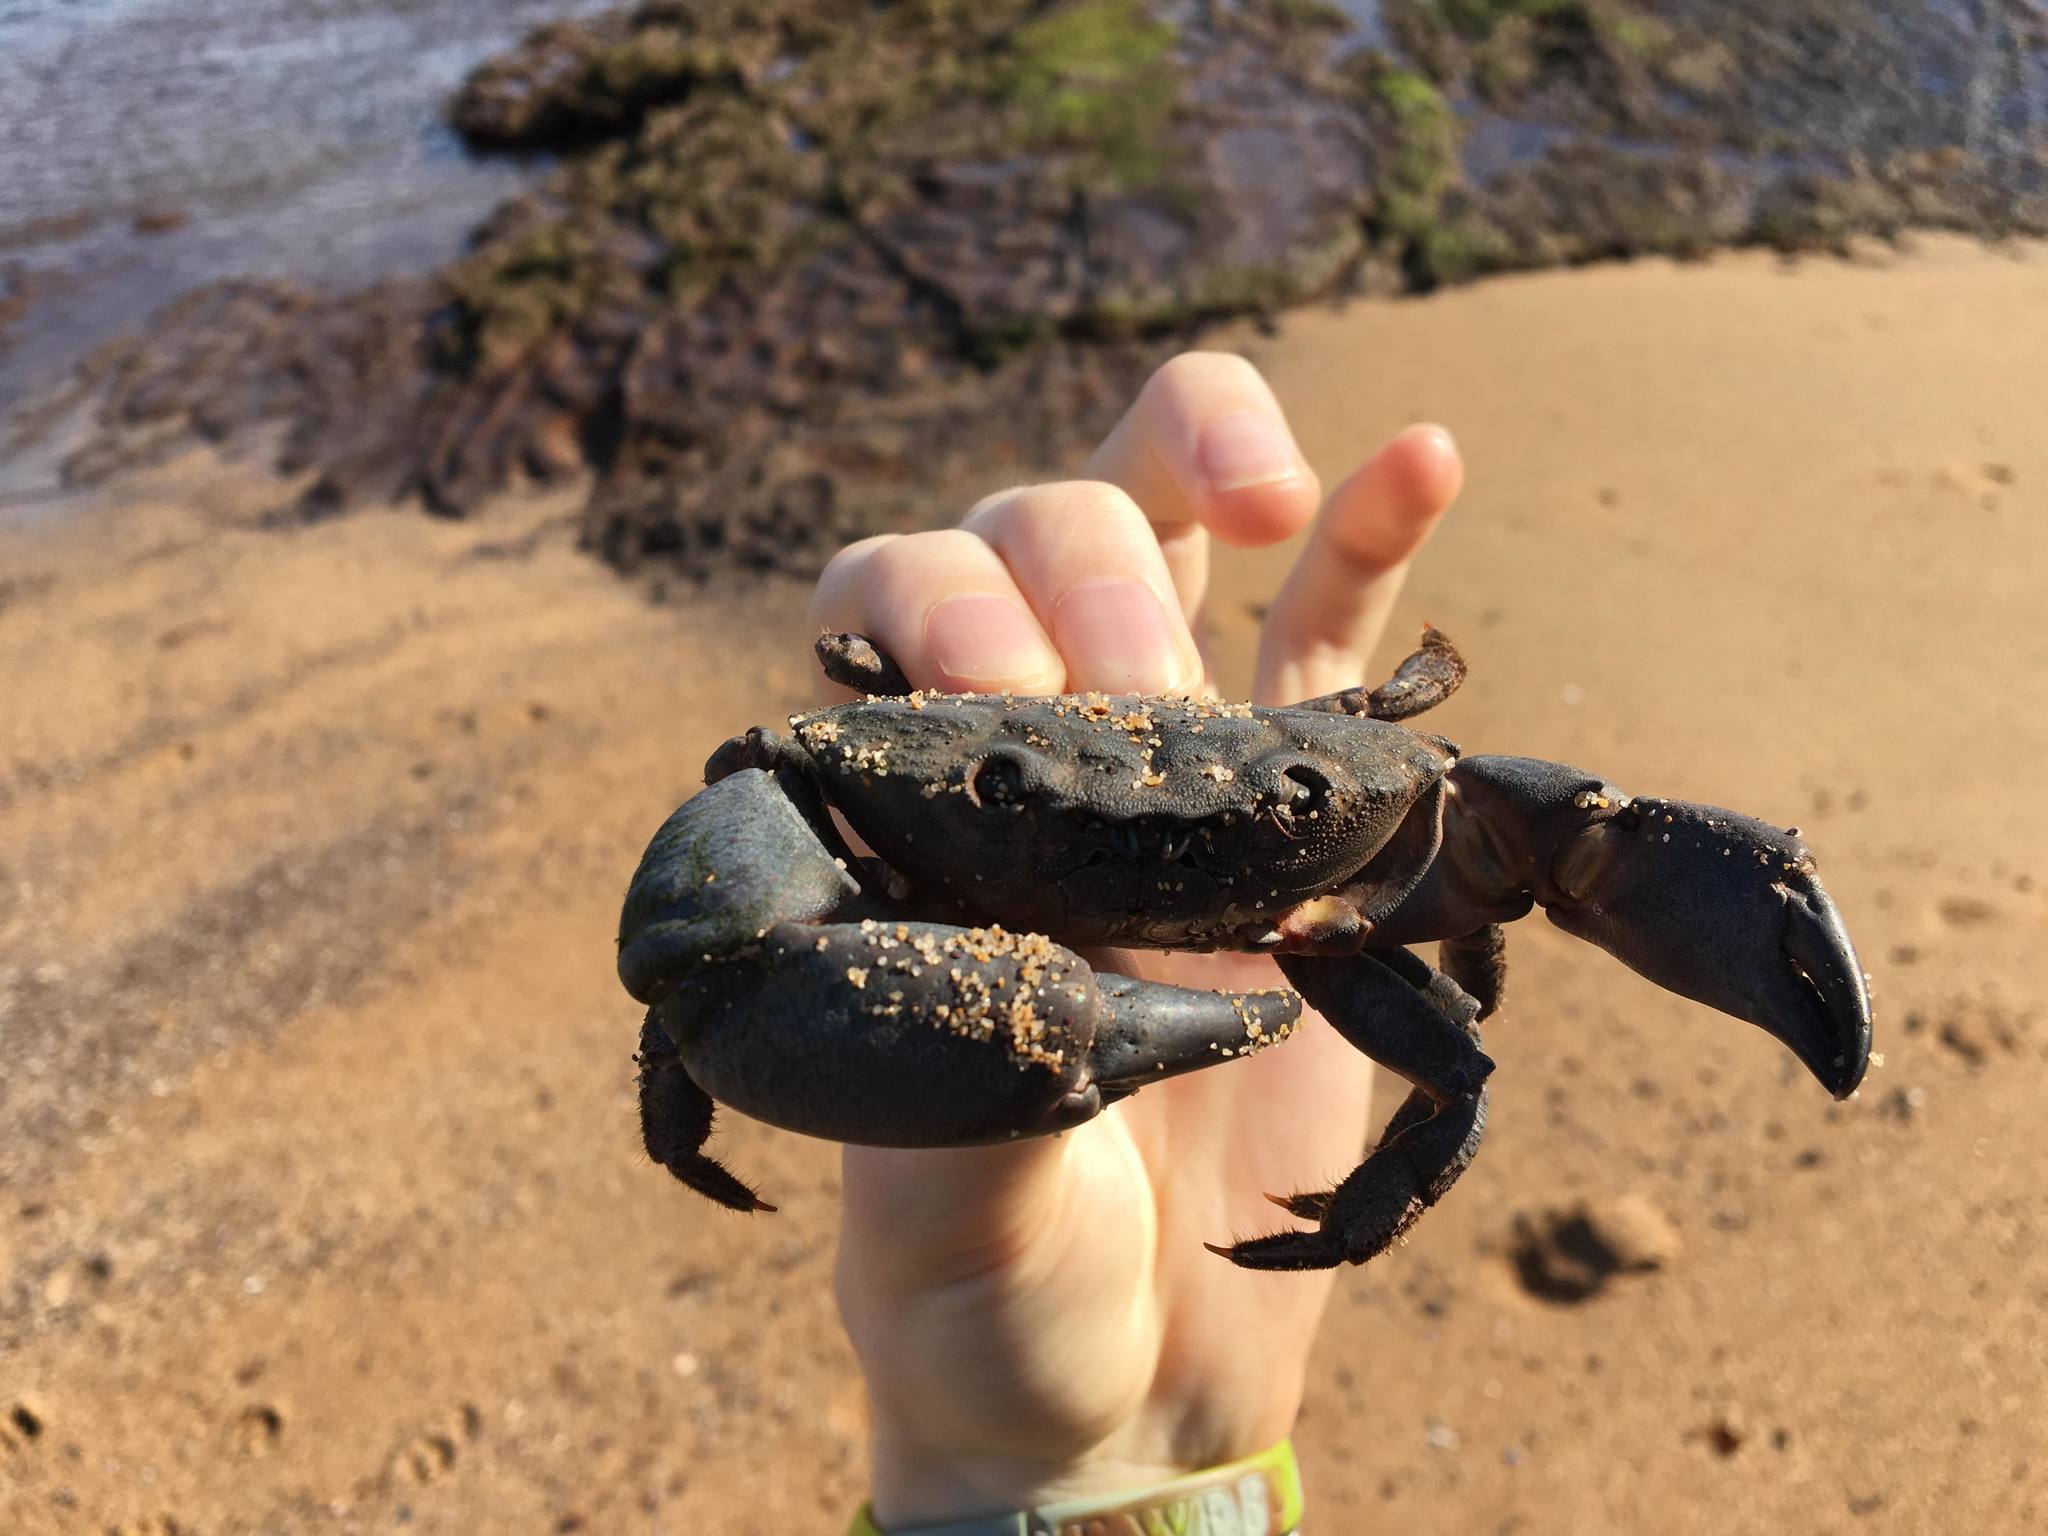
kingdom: Animalia
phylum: Arthropoda
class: Malacostraca
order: Decapoda
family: Oziidae
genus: Ozius
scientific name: Ozius truncatus
